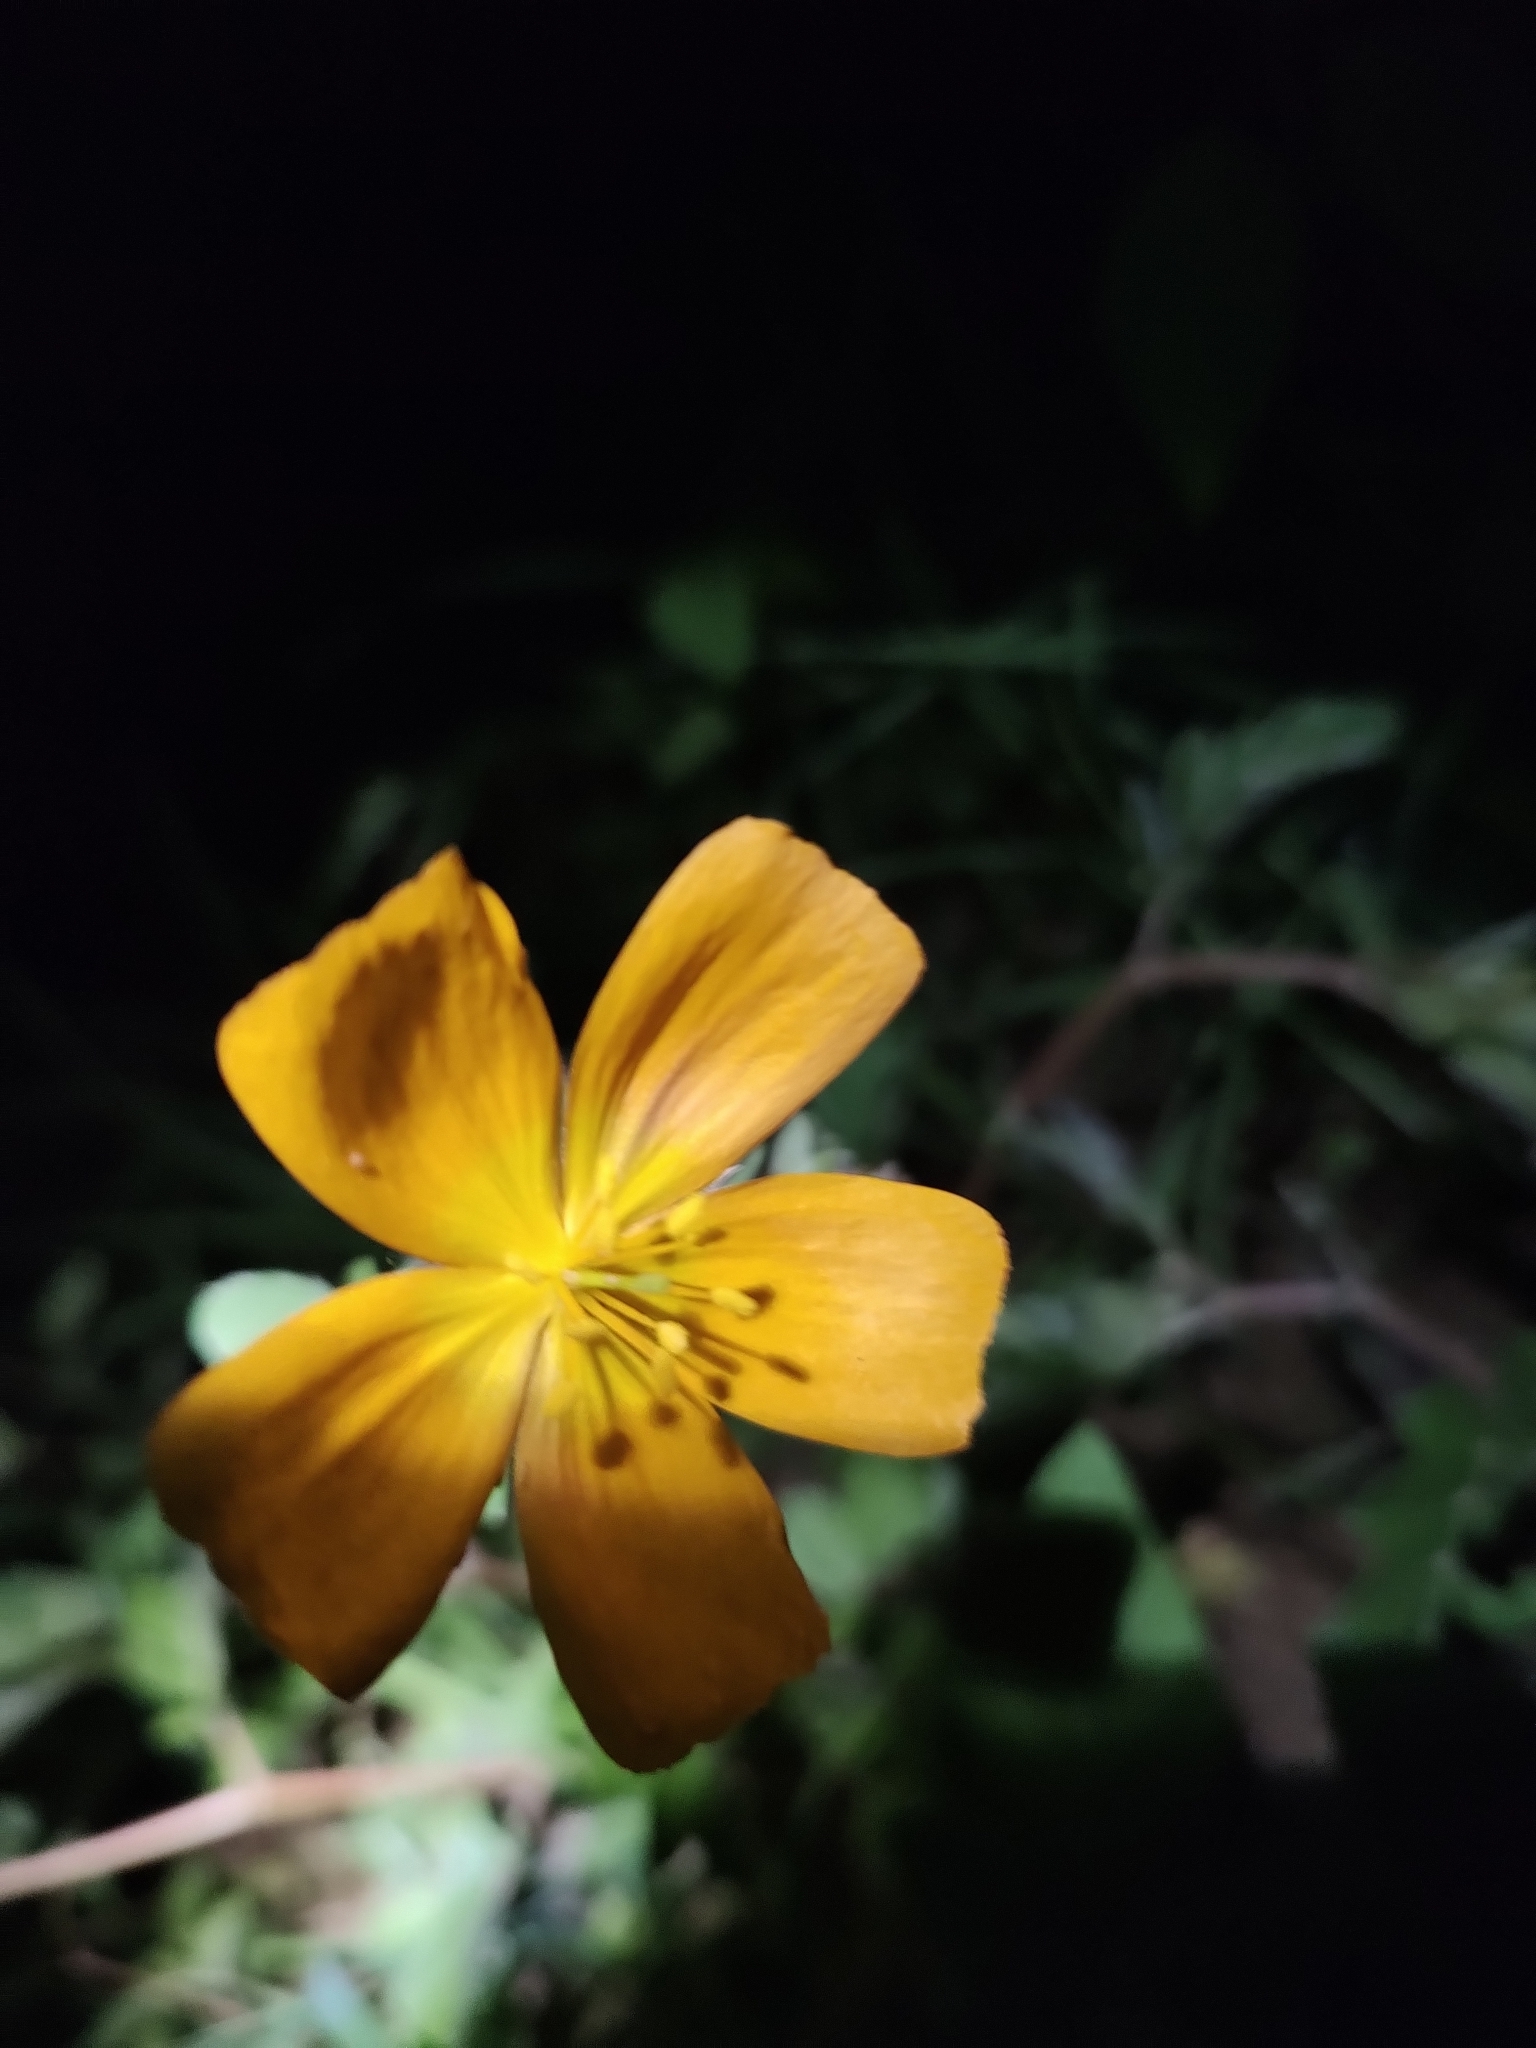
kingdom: Plantae
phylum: Tracheophyta
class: Magnoliopsida
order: Zygophyllales
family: Zygophyllaceae
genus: Kallstroemia
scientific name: Kallstroemia peninsularis
